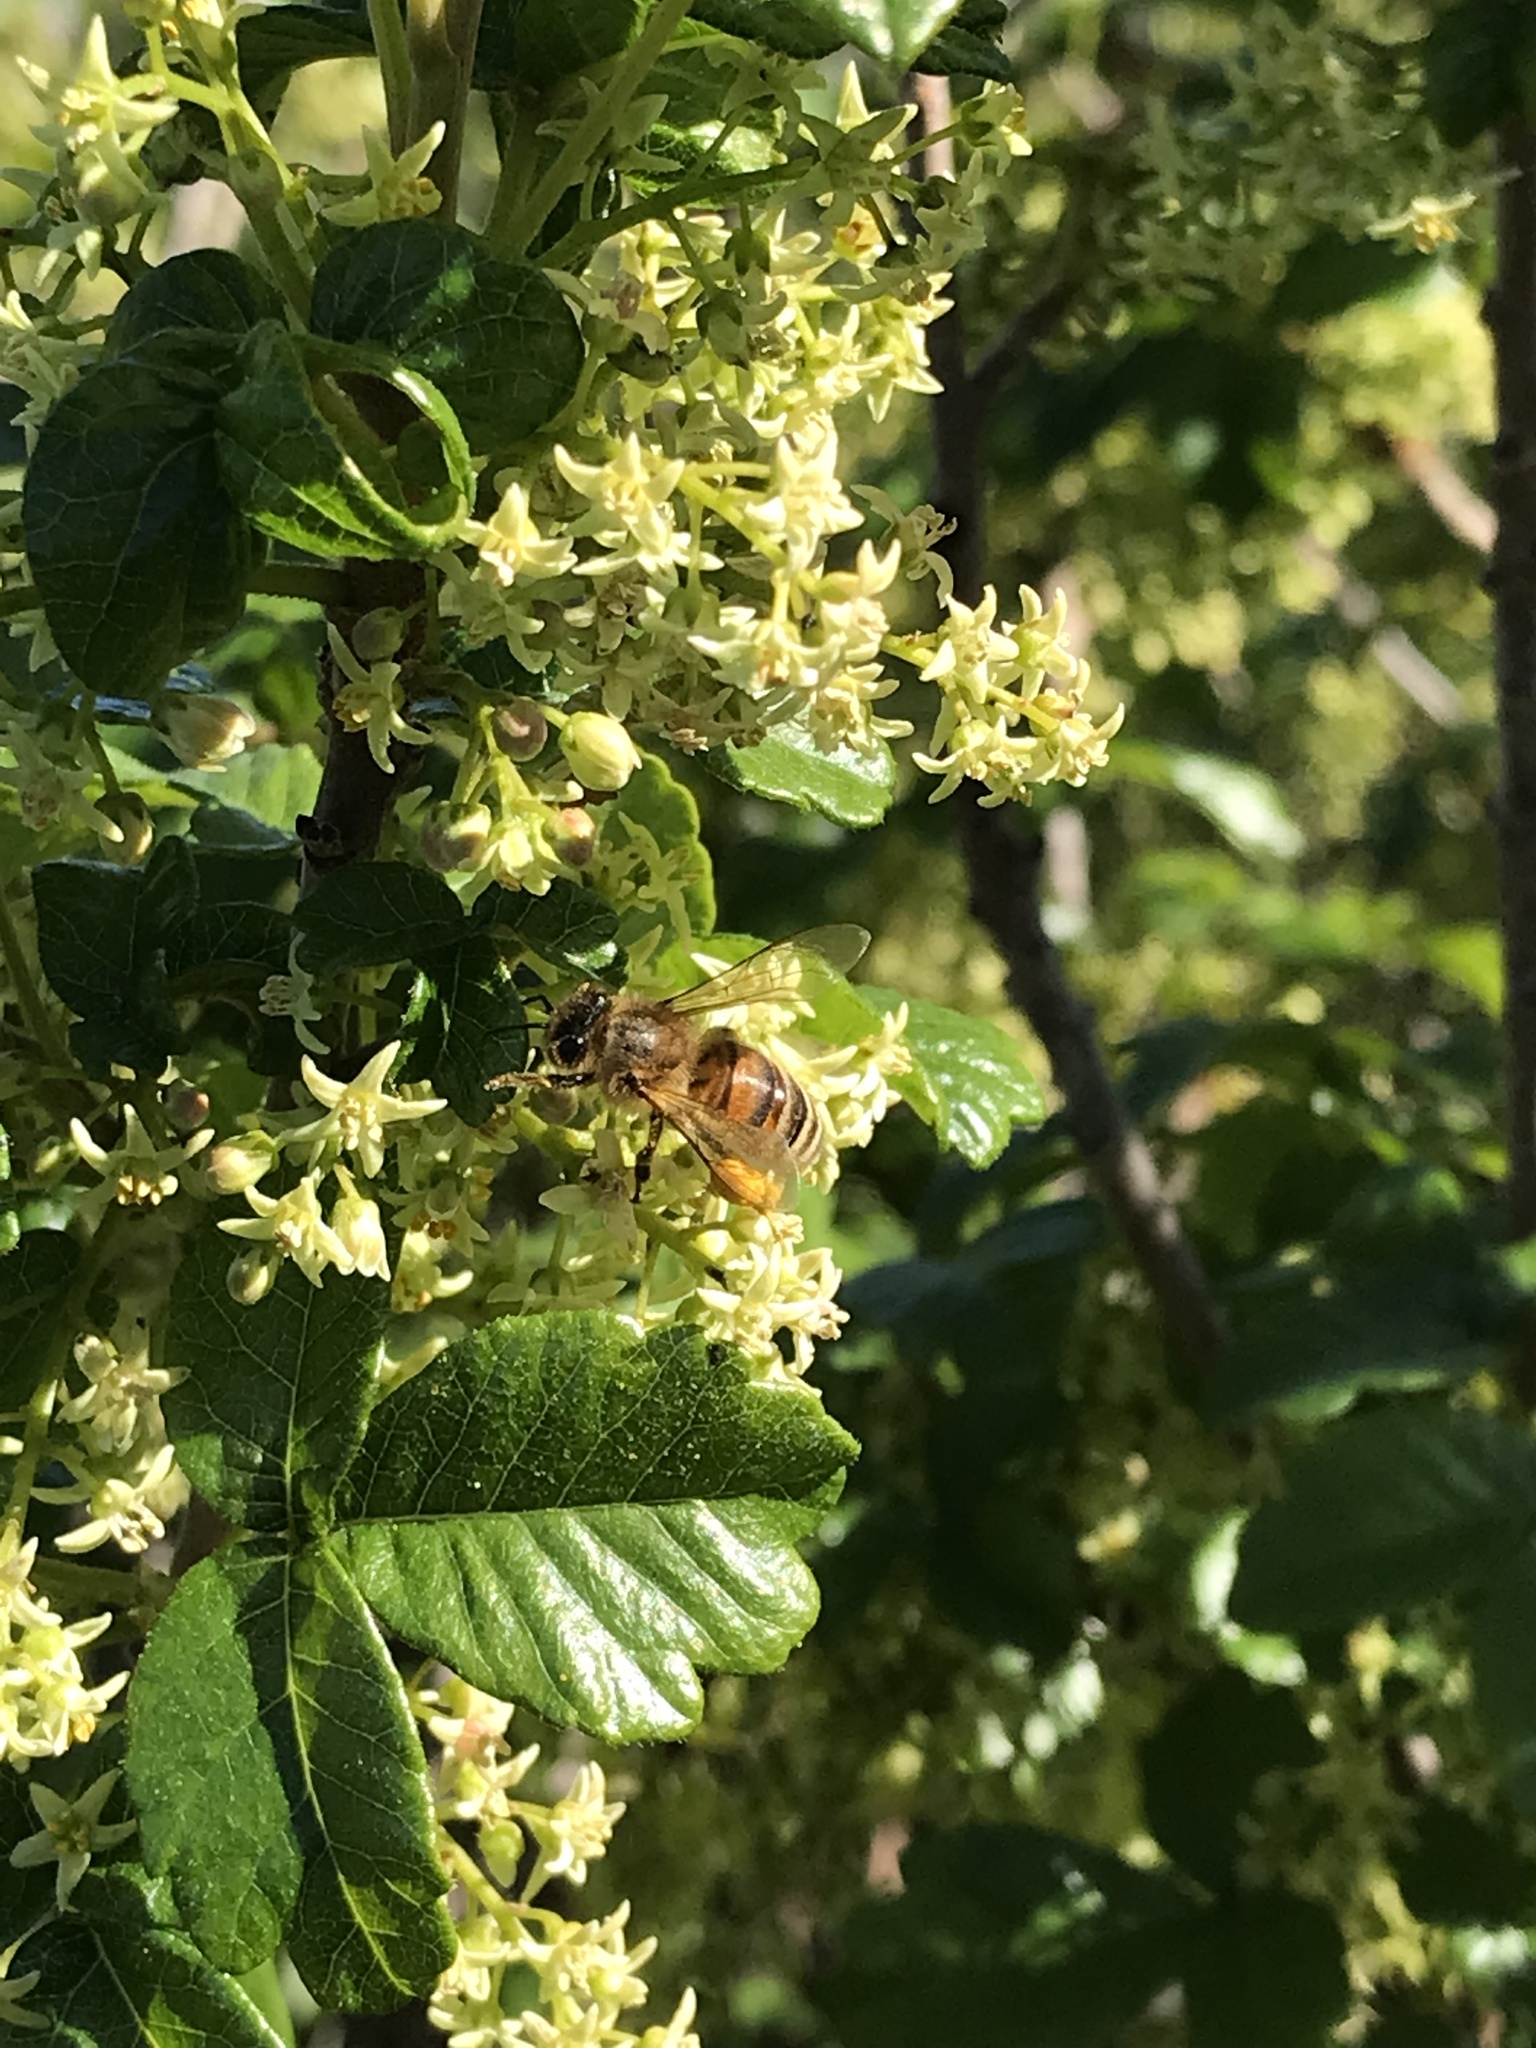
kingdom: Animalia
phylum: Arthropoda
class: Insecta
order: Hymenoptera
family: Apidae
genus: Apis
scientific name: Apis mellifera
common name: Honey bee
